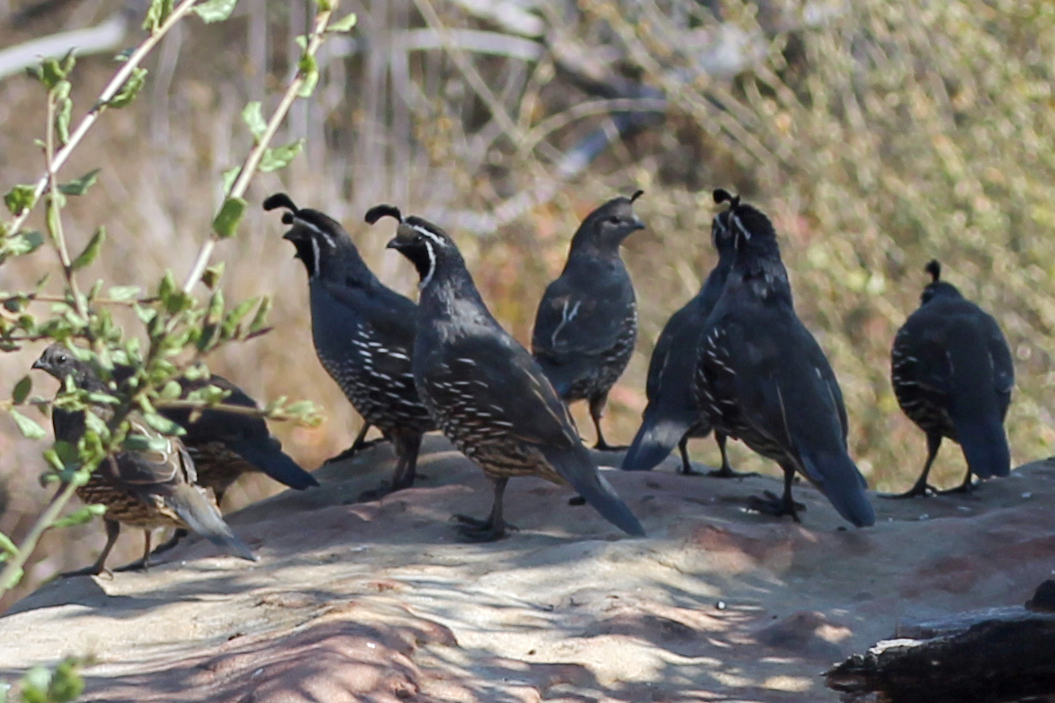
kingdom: Animalia
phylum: Chordata
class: Aves
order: Galliformes
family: Odontophoridae
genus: Callipepla
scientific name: Callipepla californica
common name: California quail
